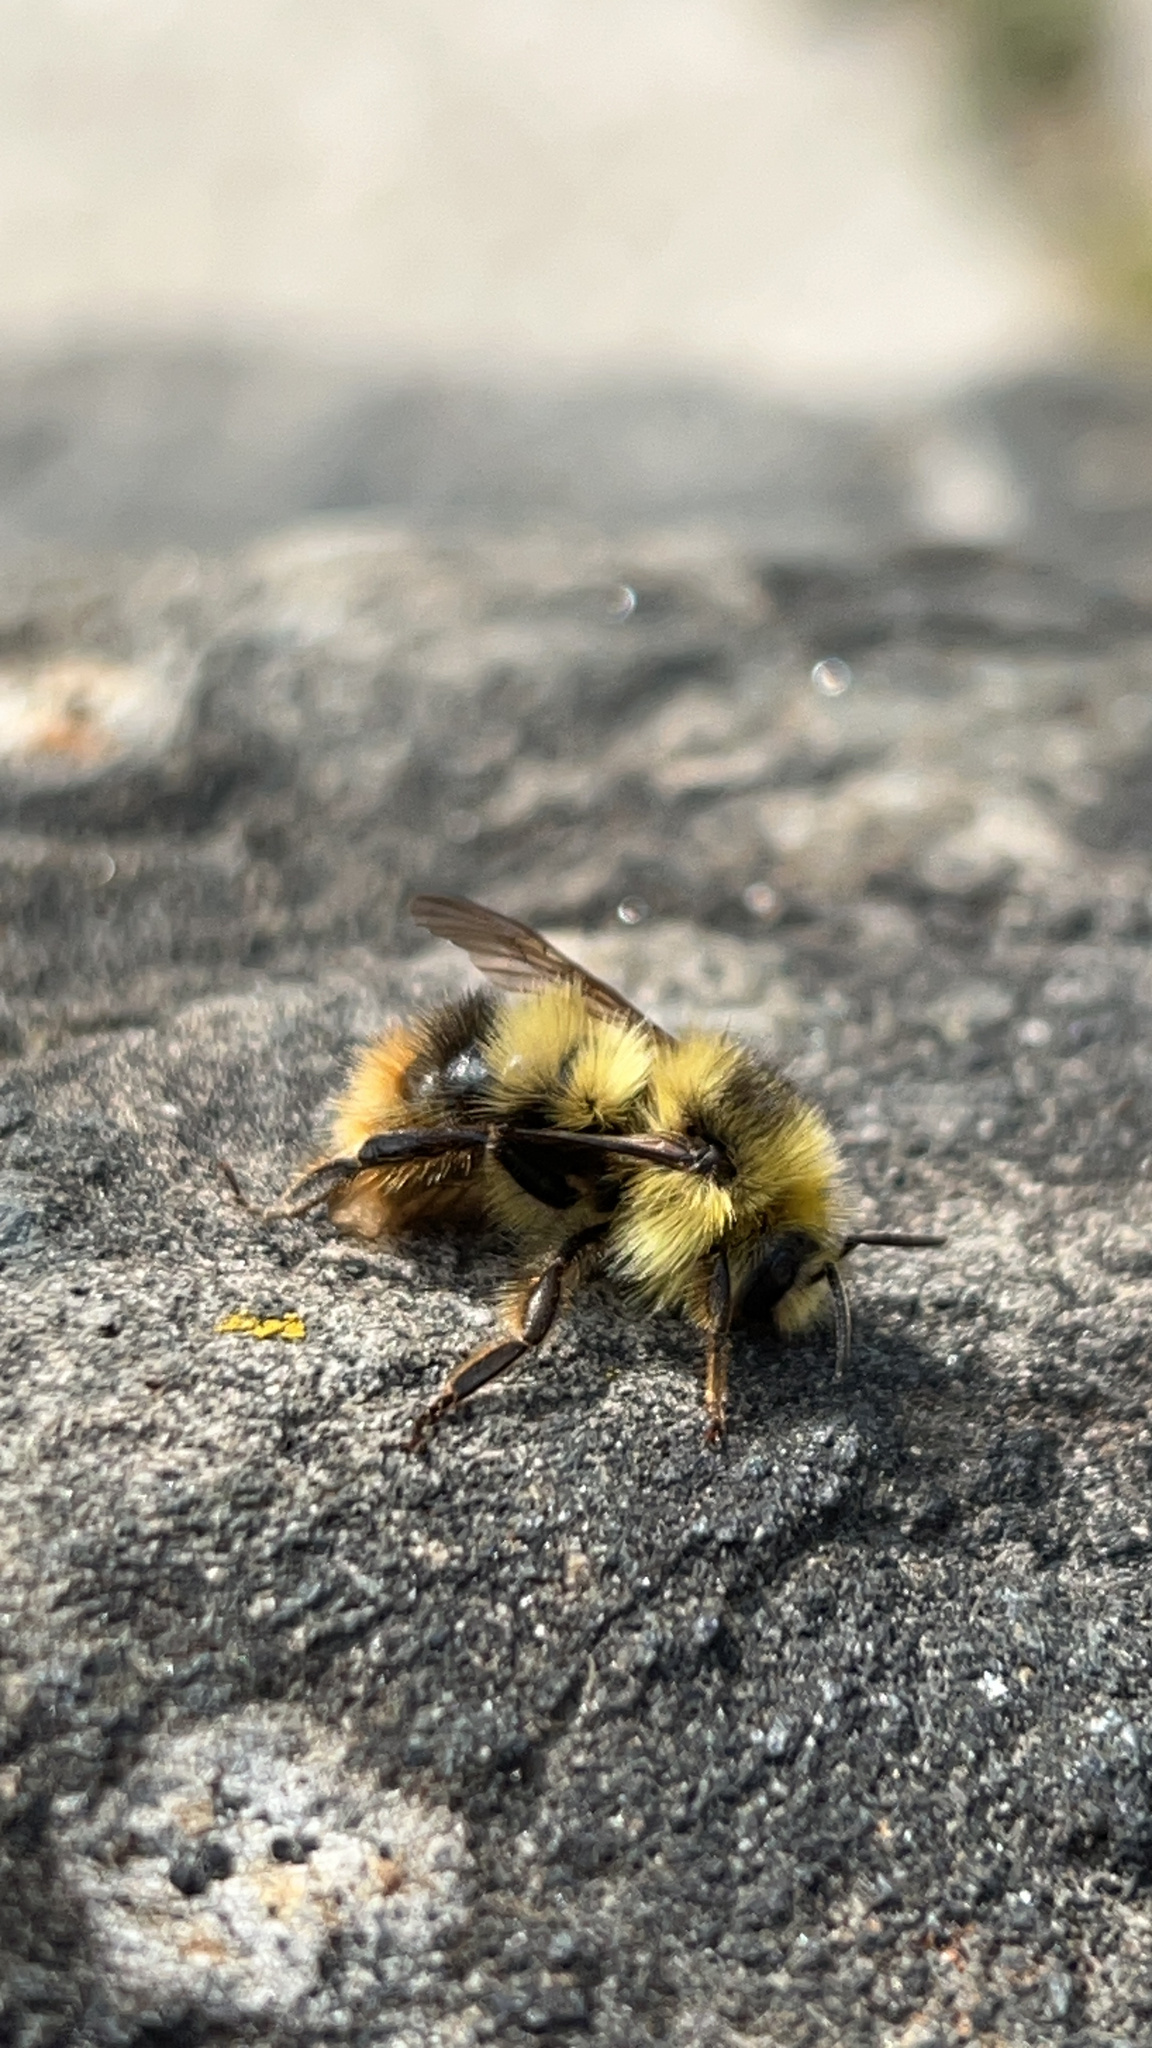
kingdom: Animalia
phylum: Arthropoda
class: Insecta
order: Hymenoptera
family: Apidae
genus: Bombus
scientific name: Bombus mixtus
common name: Fuzzy-horned bumble bee
